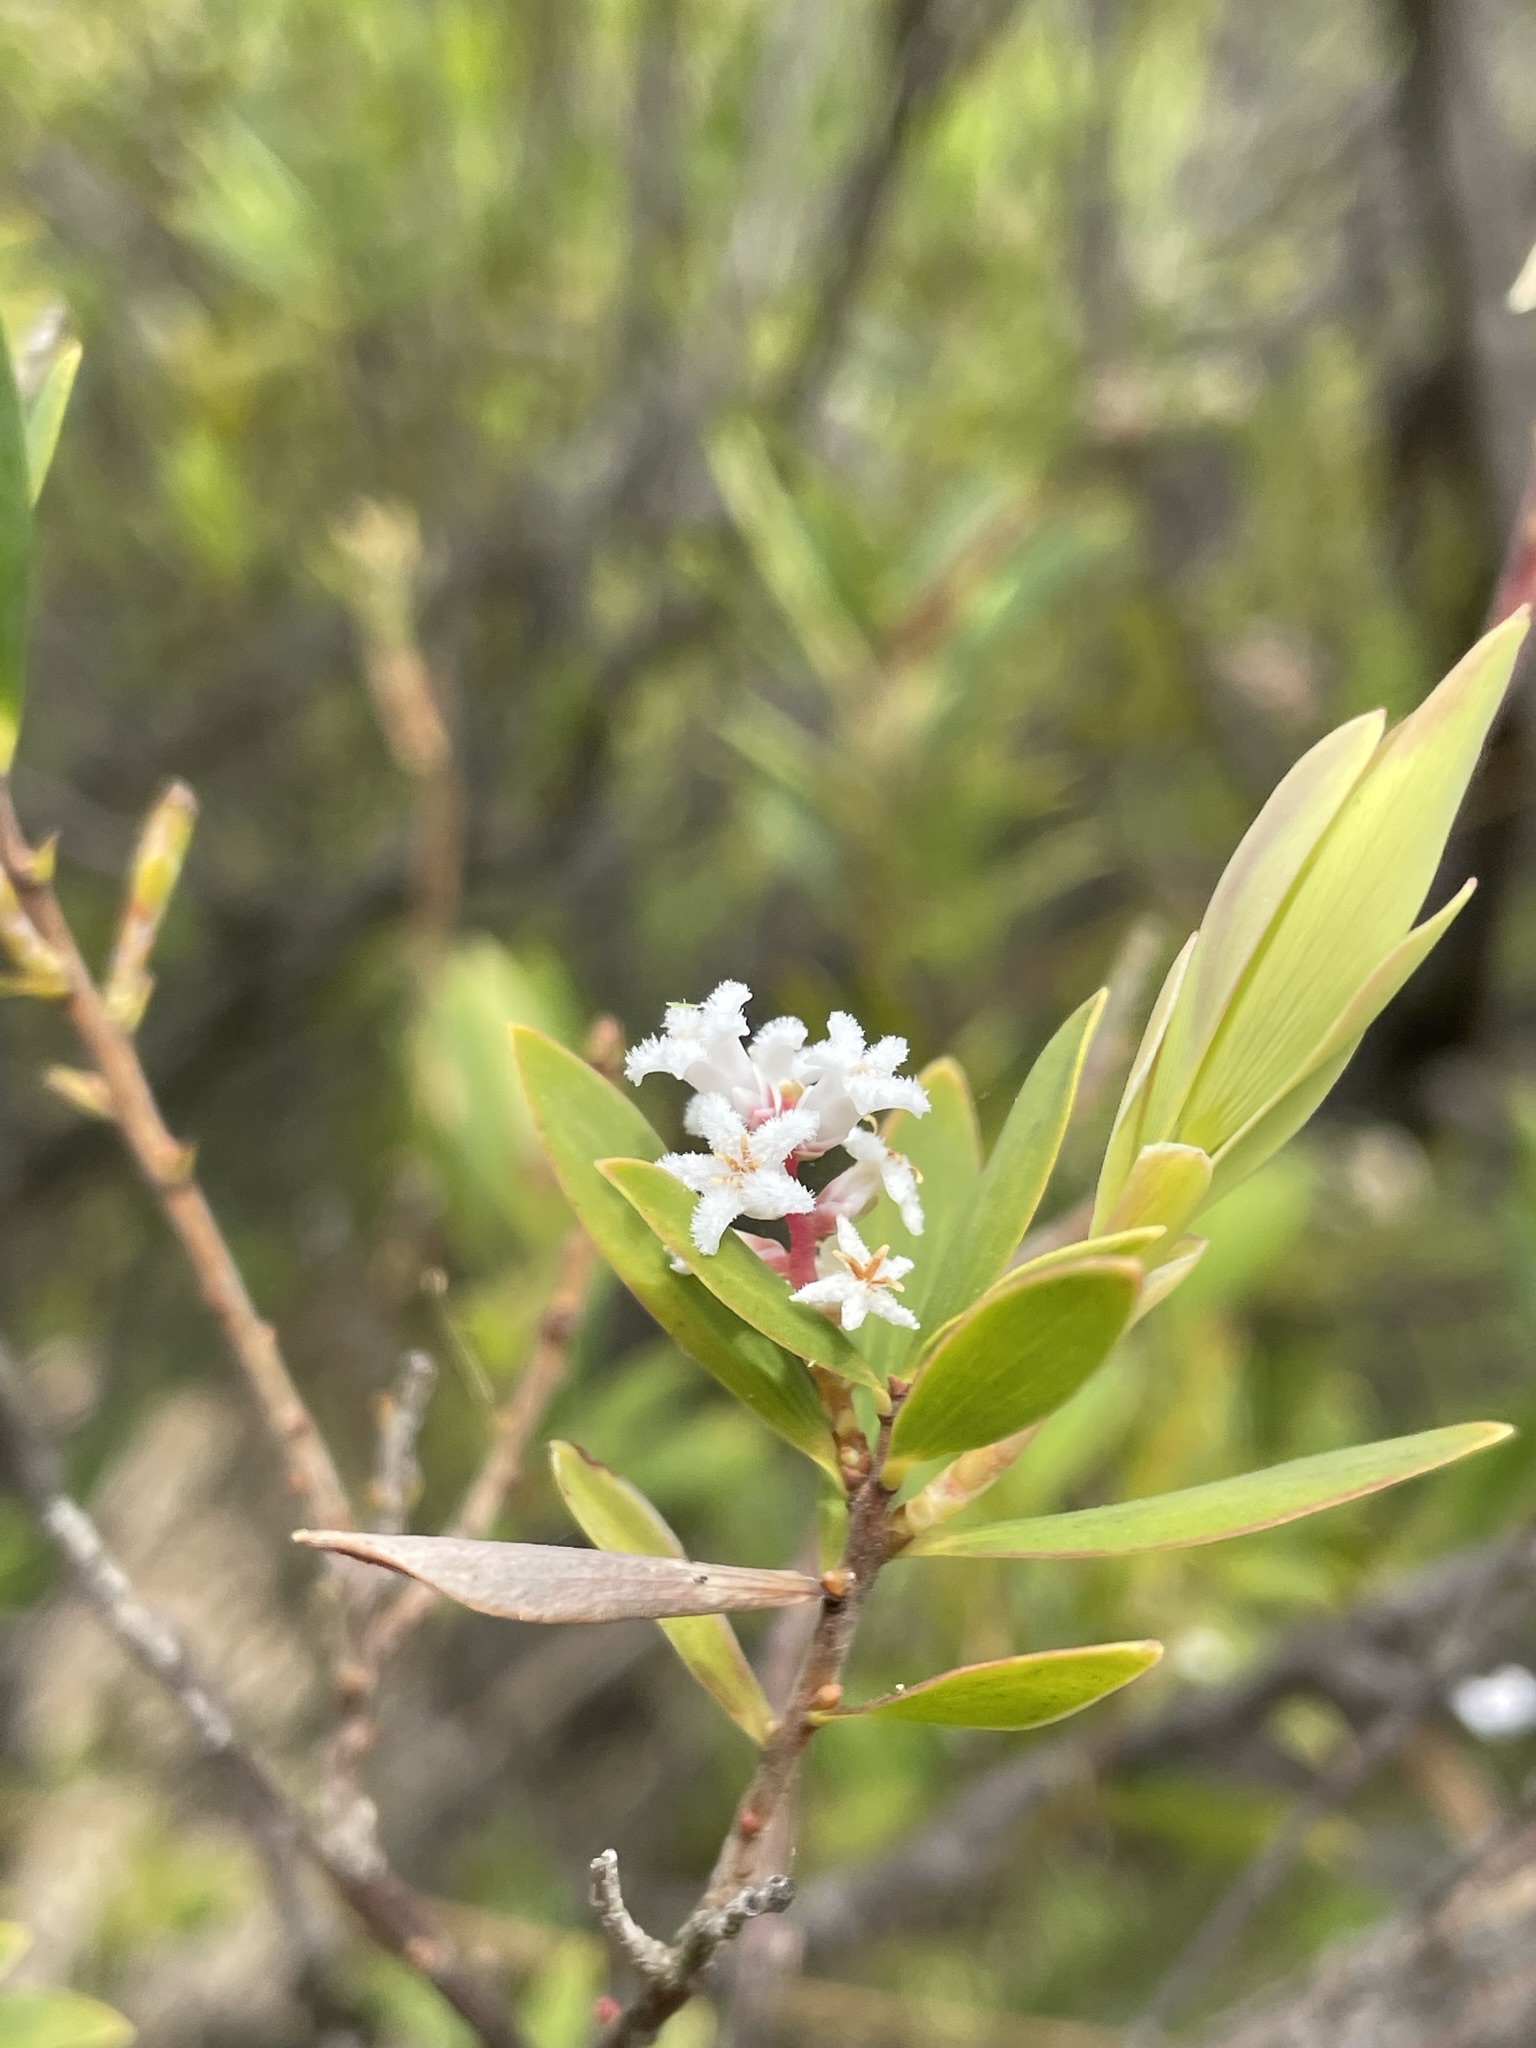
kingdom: Plantae
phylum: Tracheophyta
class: Magnoliopsida
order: Ericales
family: Ericaceae
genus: Leptecophylla
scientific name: Leptecophylla parvifolia
